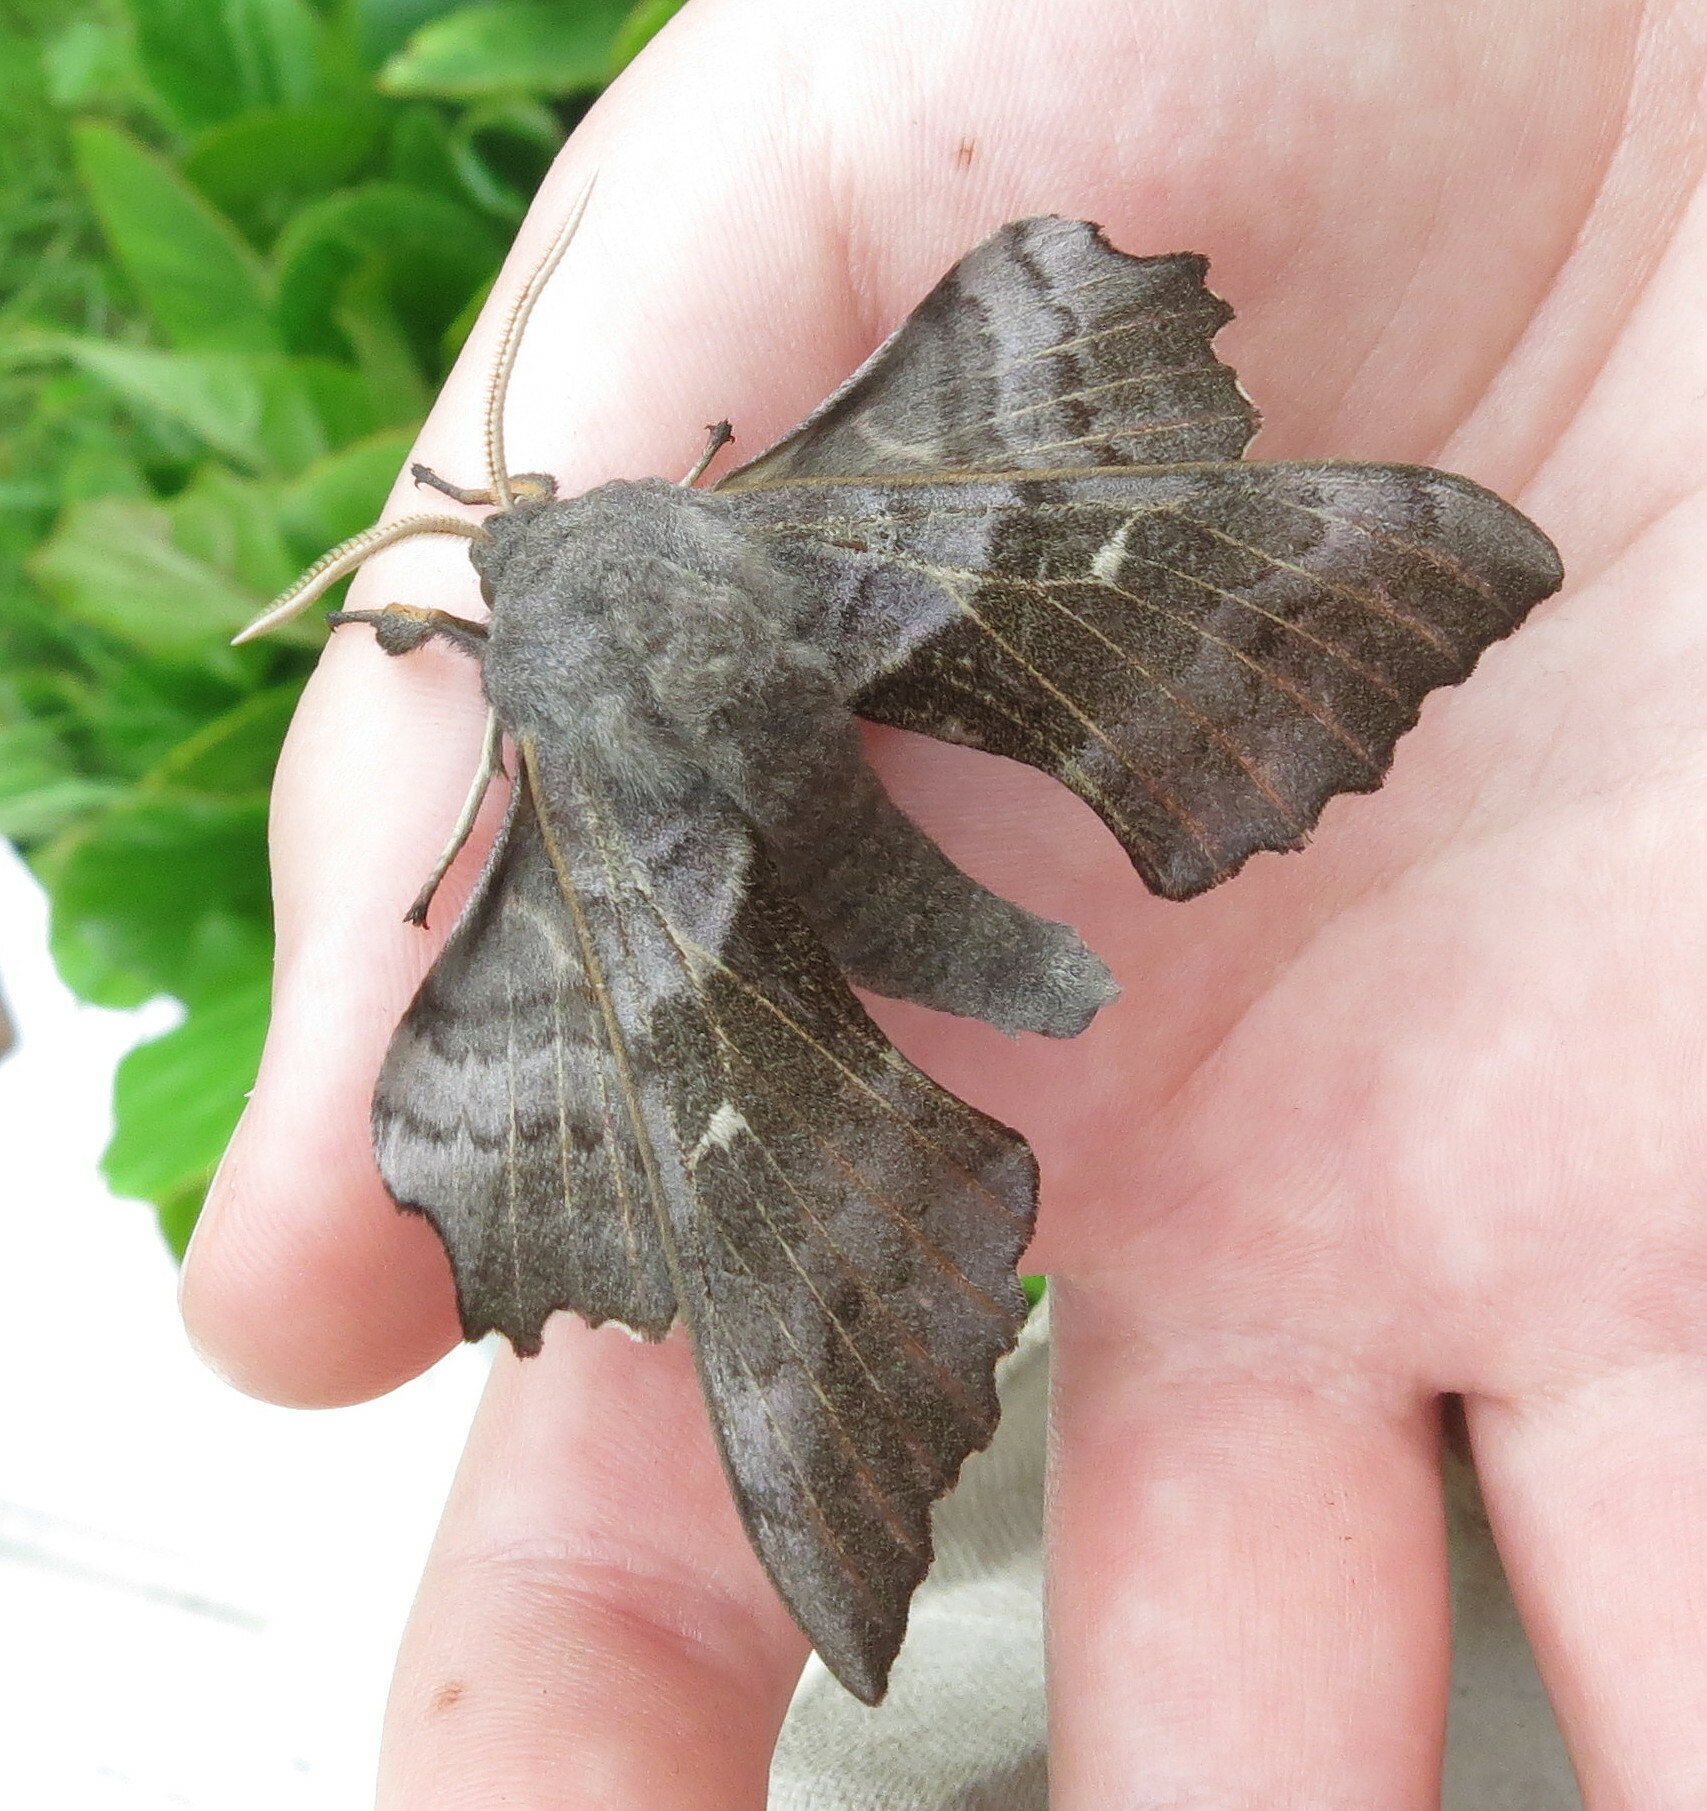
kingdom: Animalia
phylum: Arthropoda
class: Insecta
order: Lepidoptera
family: Sphingidae
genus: Laothoe
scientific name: Laothoe populi
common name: Poplar hawk-moth
